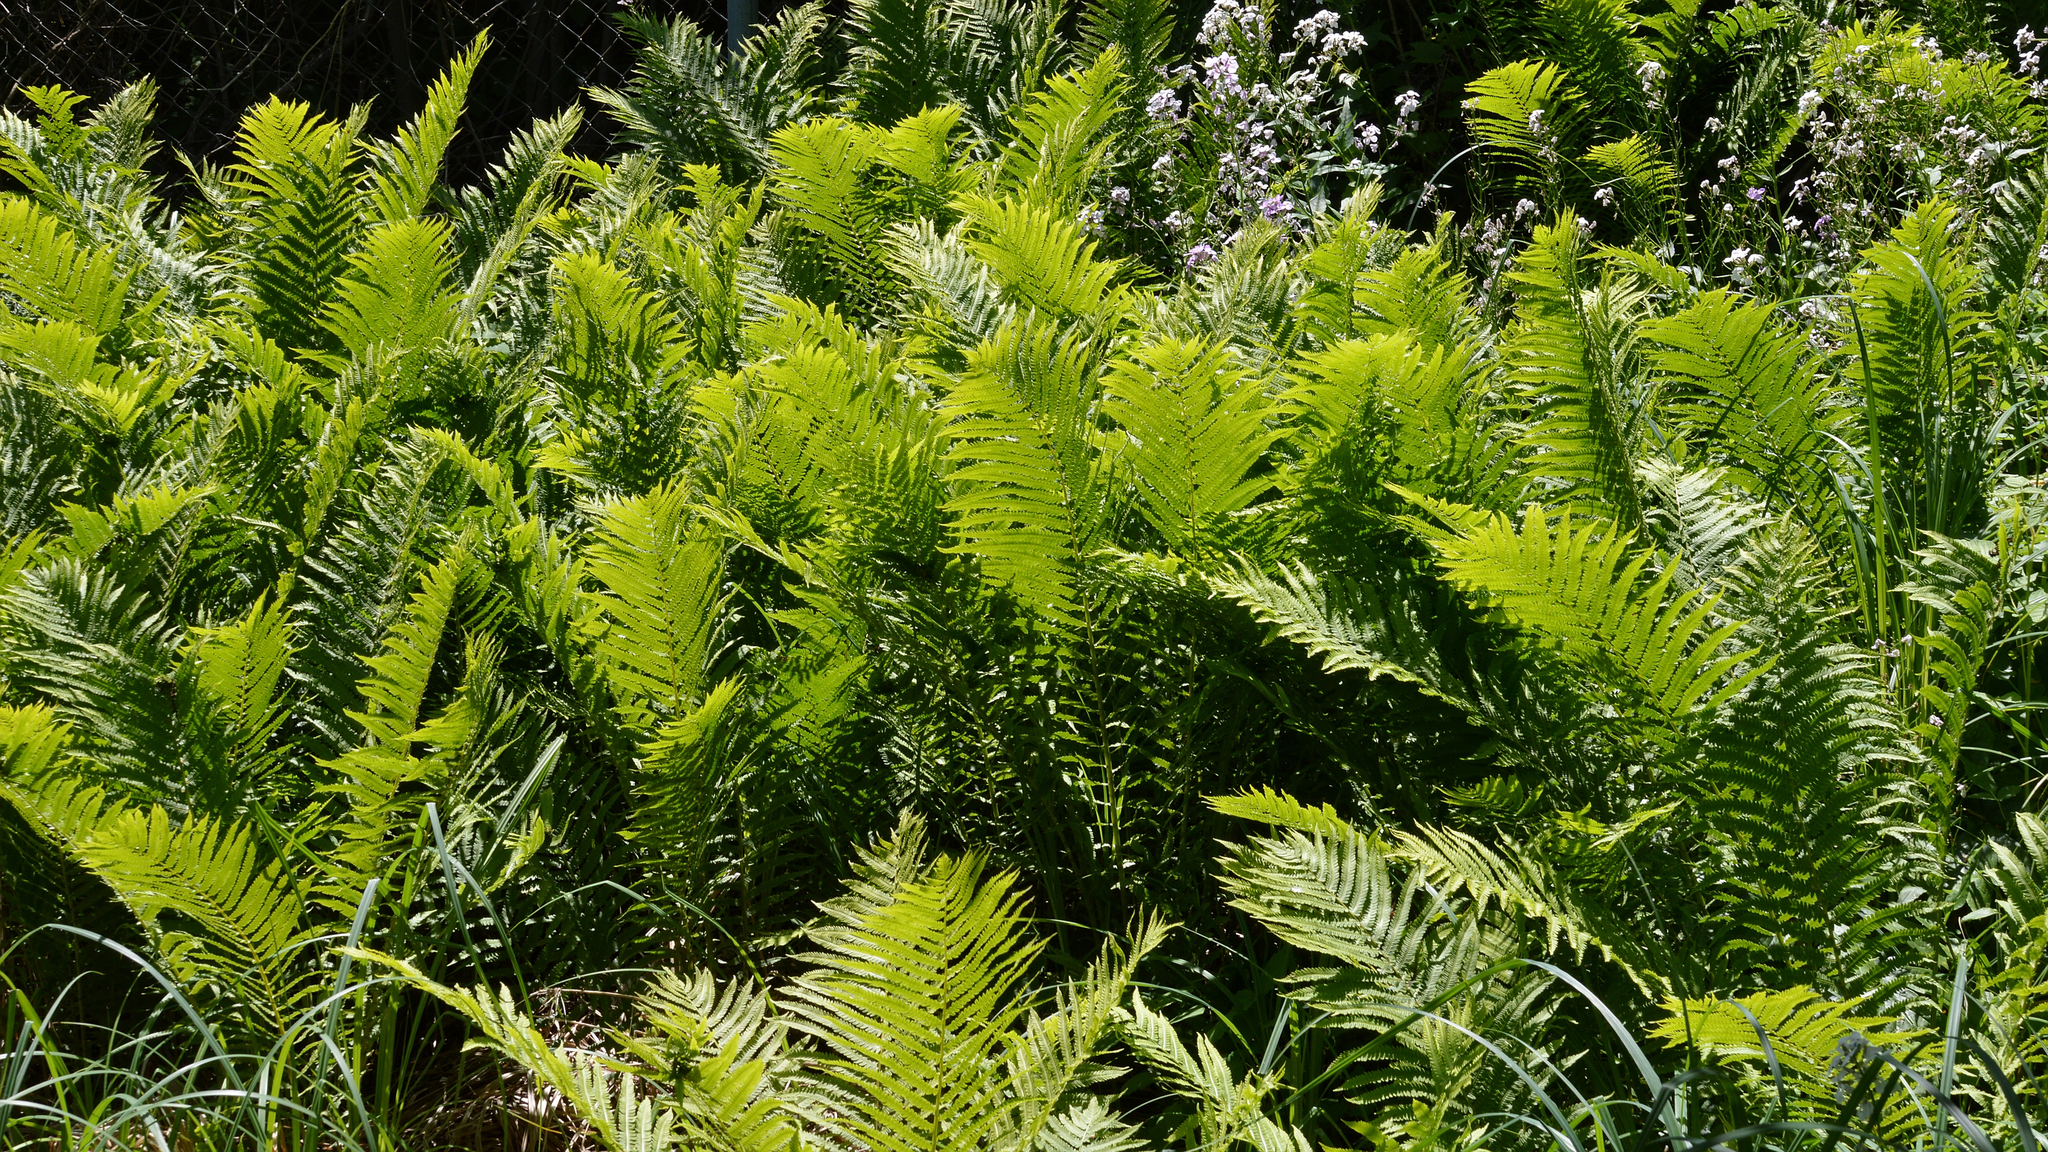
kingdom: Plantae
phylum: Tracheophyta
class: Polypodiopsida
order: Polypodiales
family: Onocleaceae
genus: Matteuccia
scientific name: Matteuccia struthiopteris
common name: Ostrich fern
